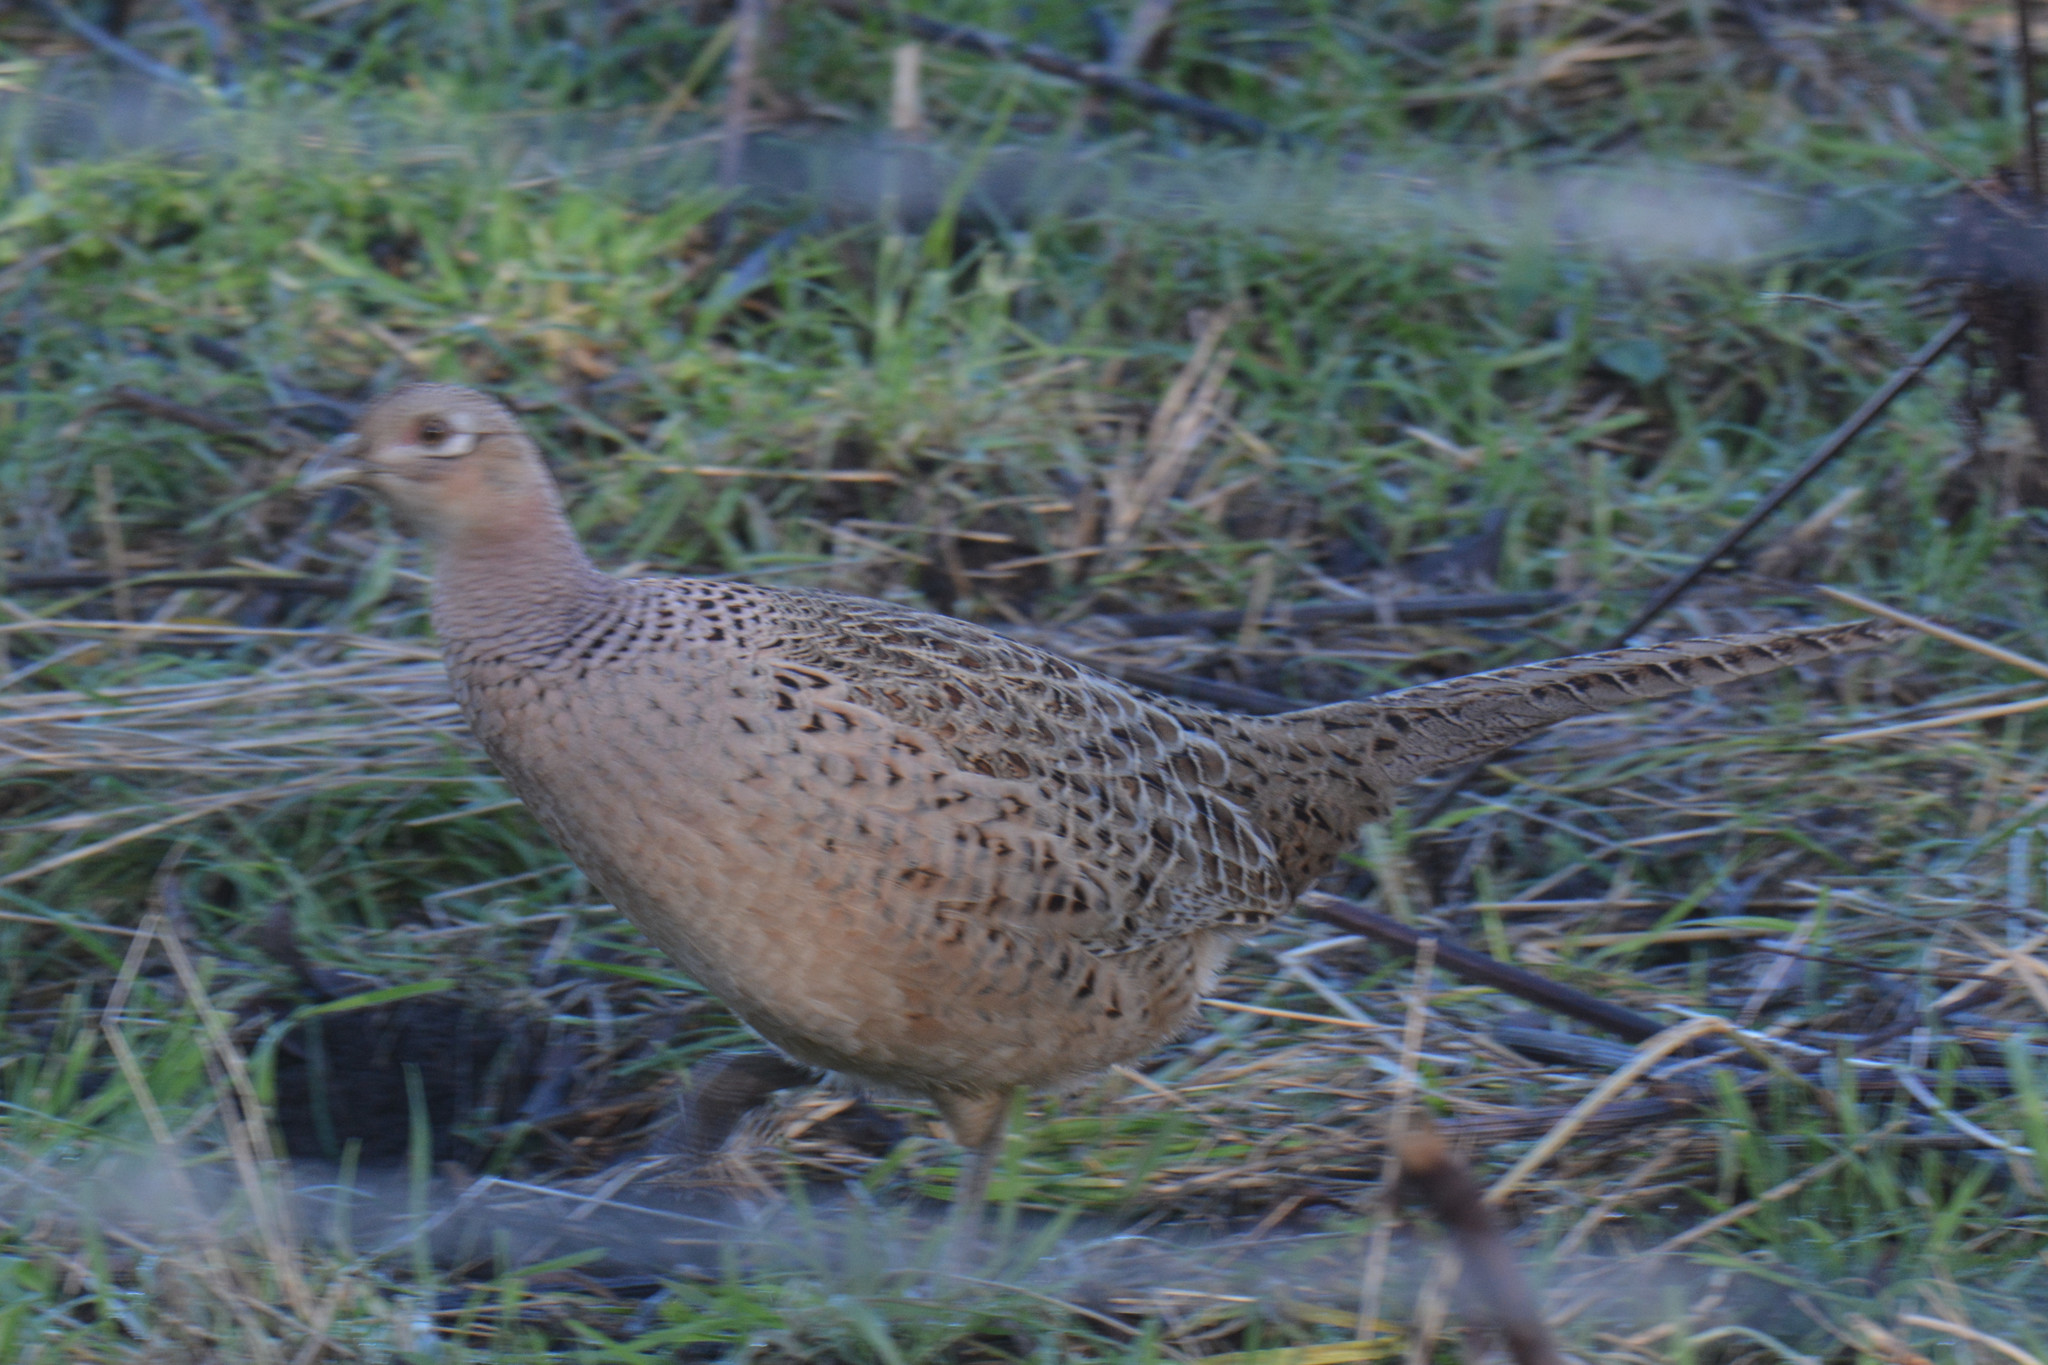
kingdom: Animalia
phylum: Chordata
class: Aves
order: Galliformes
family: Phasianidae
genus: Phasianus
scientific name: Phasianus colchicus
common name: Common pheasant
